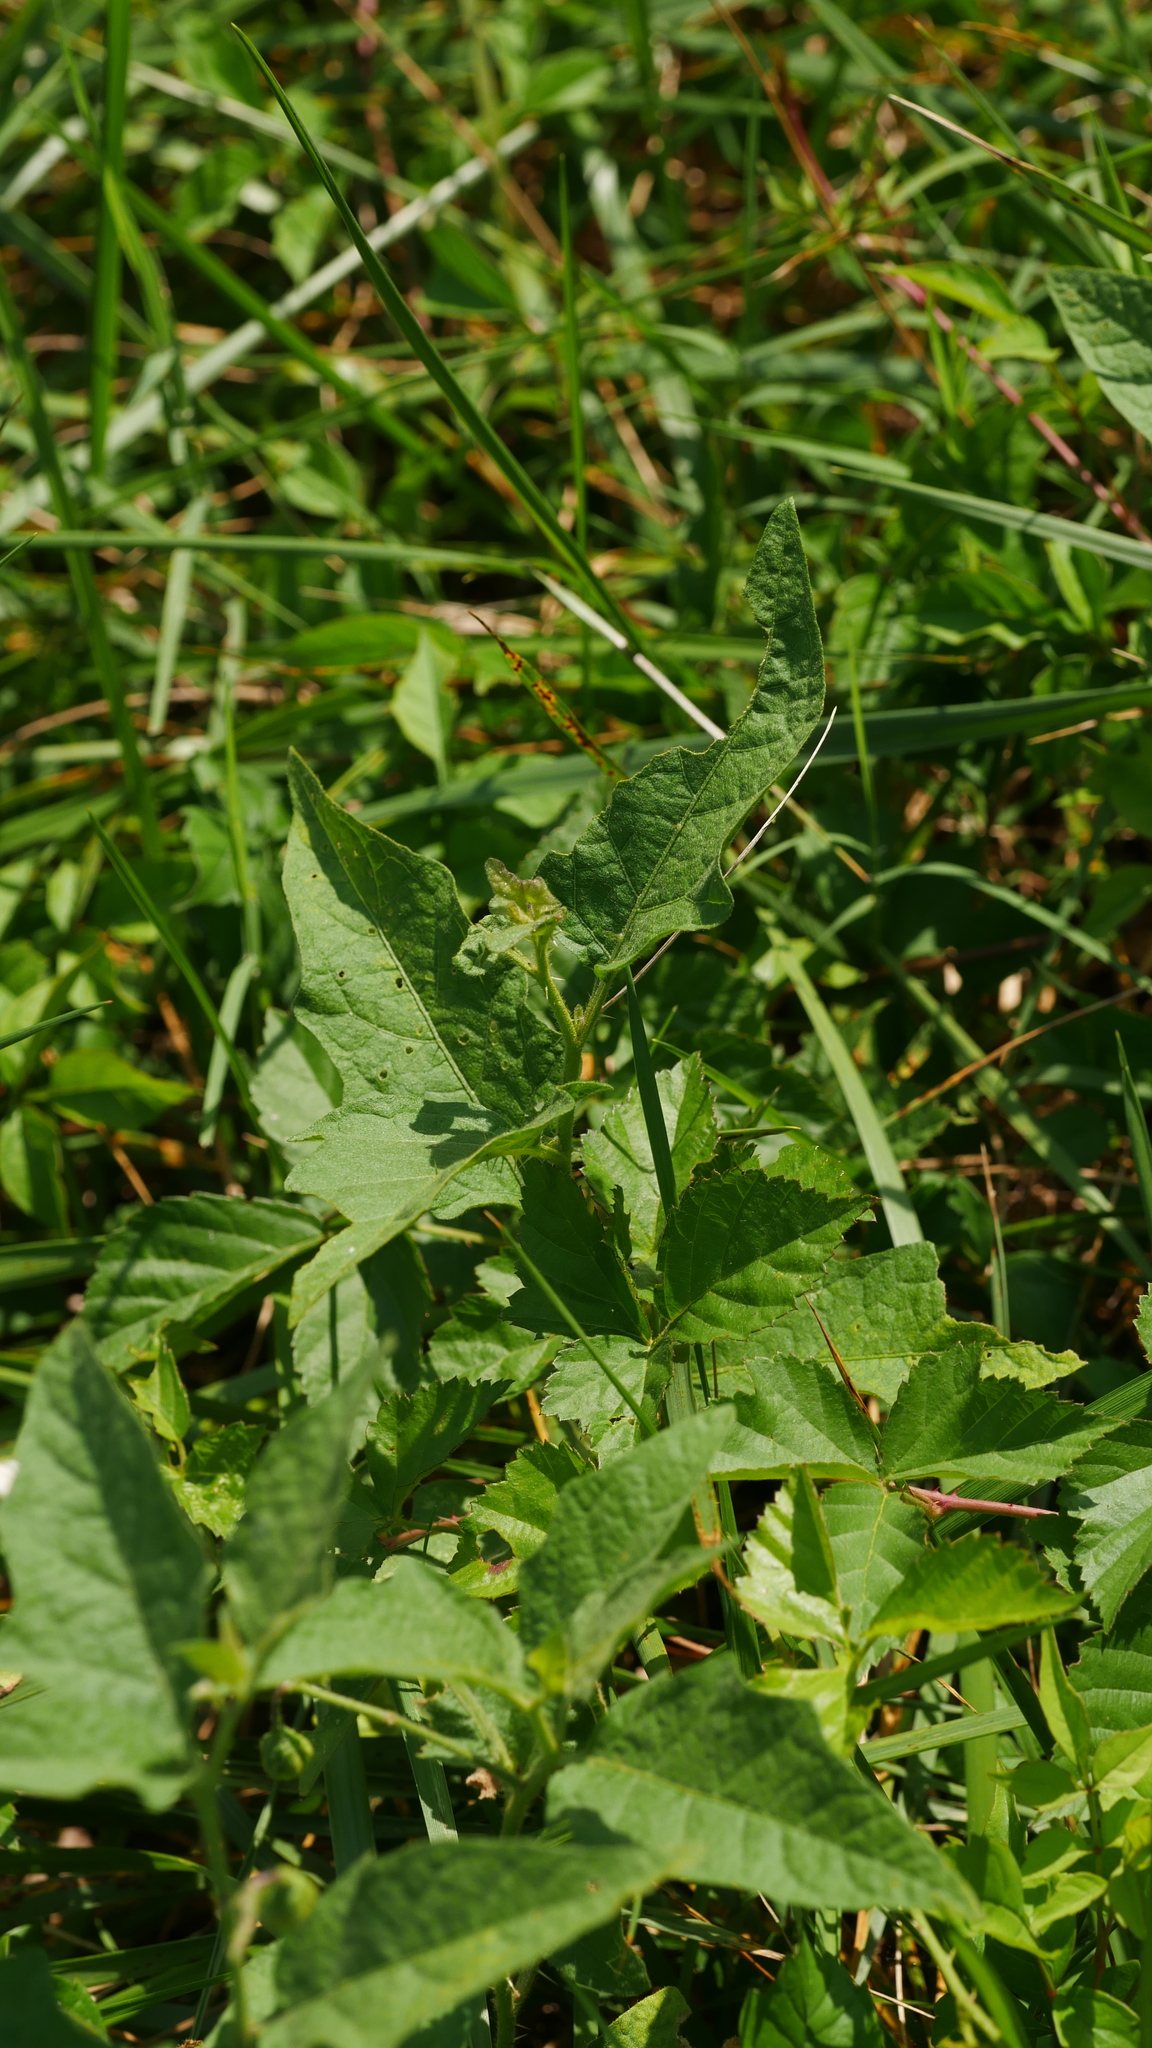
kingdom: Plantae
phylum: Tracheophyta
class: Magnoliopsida
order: Solanales
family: Solanaceae
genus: Solanum
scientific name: Solanum carolinense
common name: Horse-nettle
